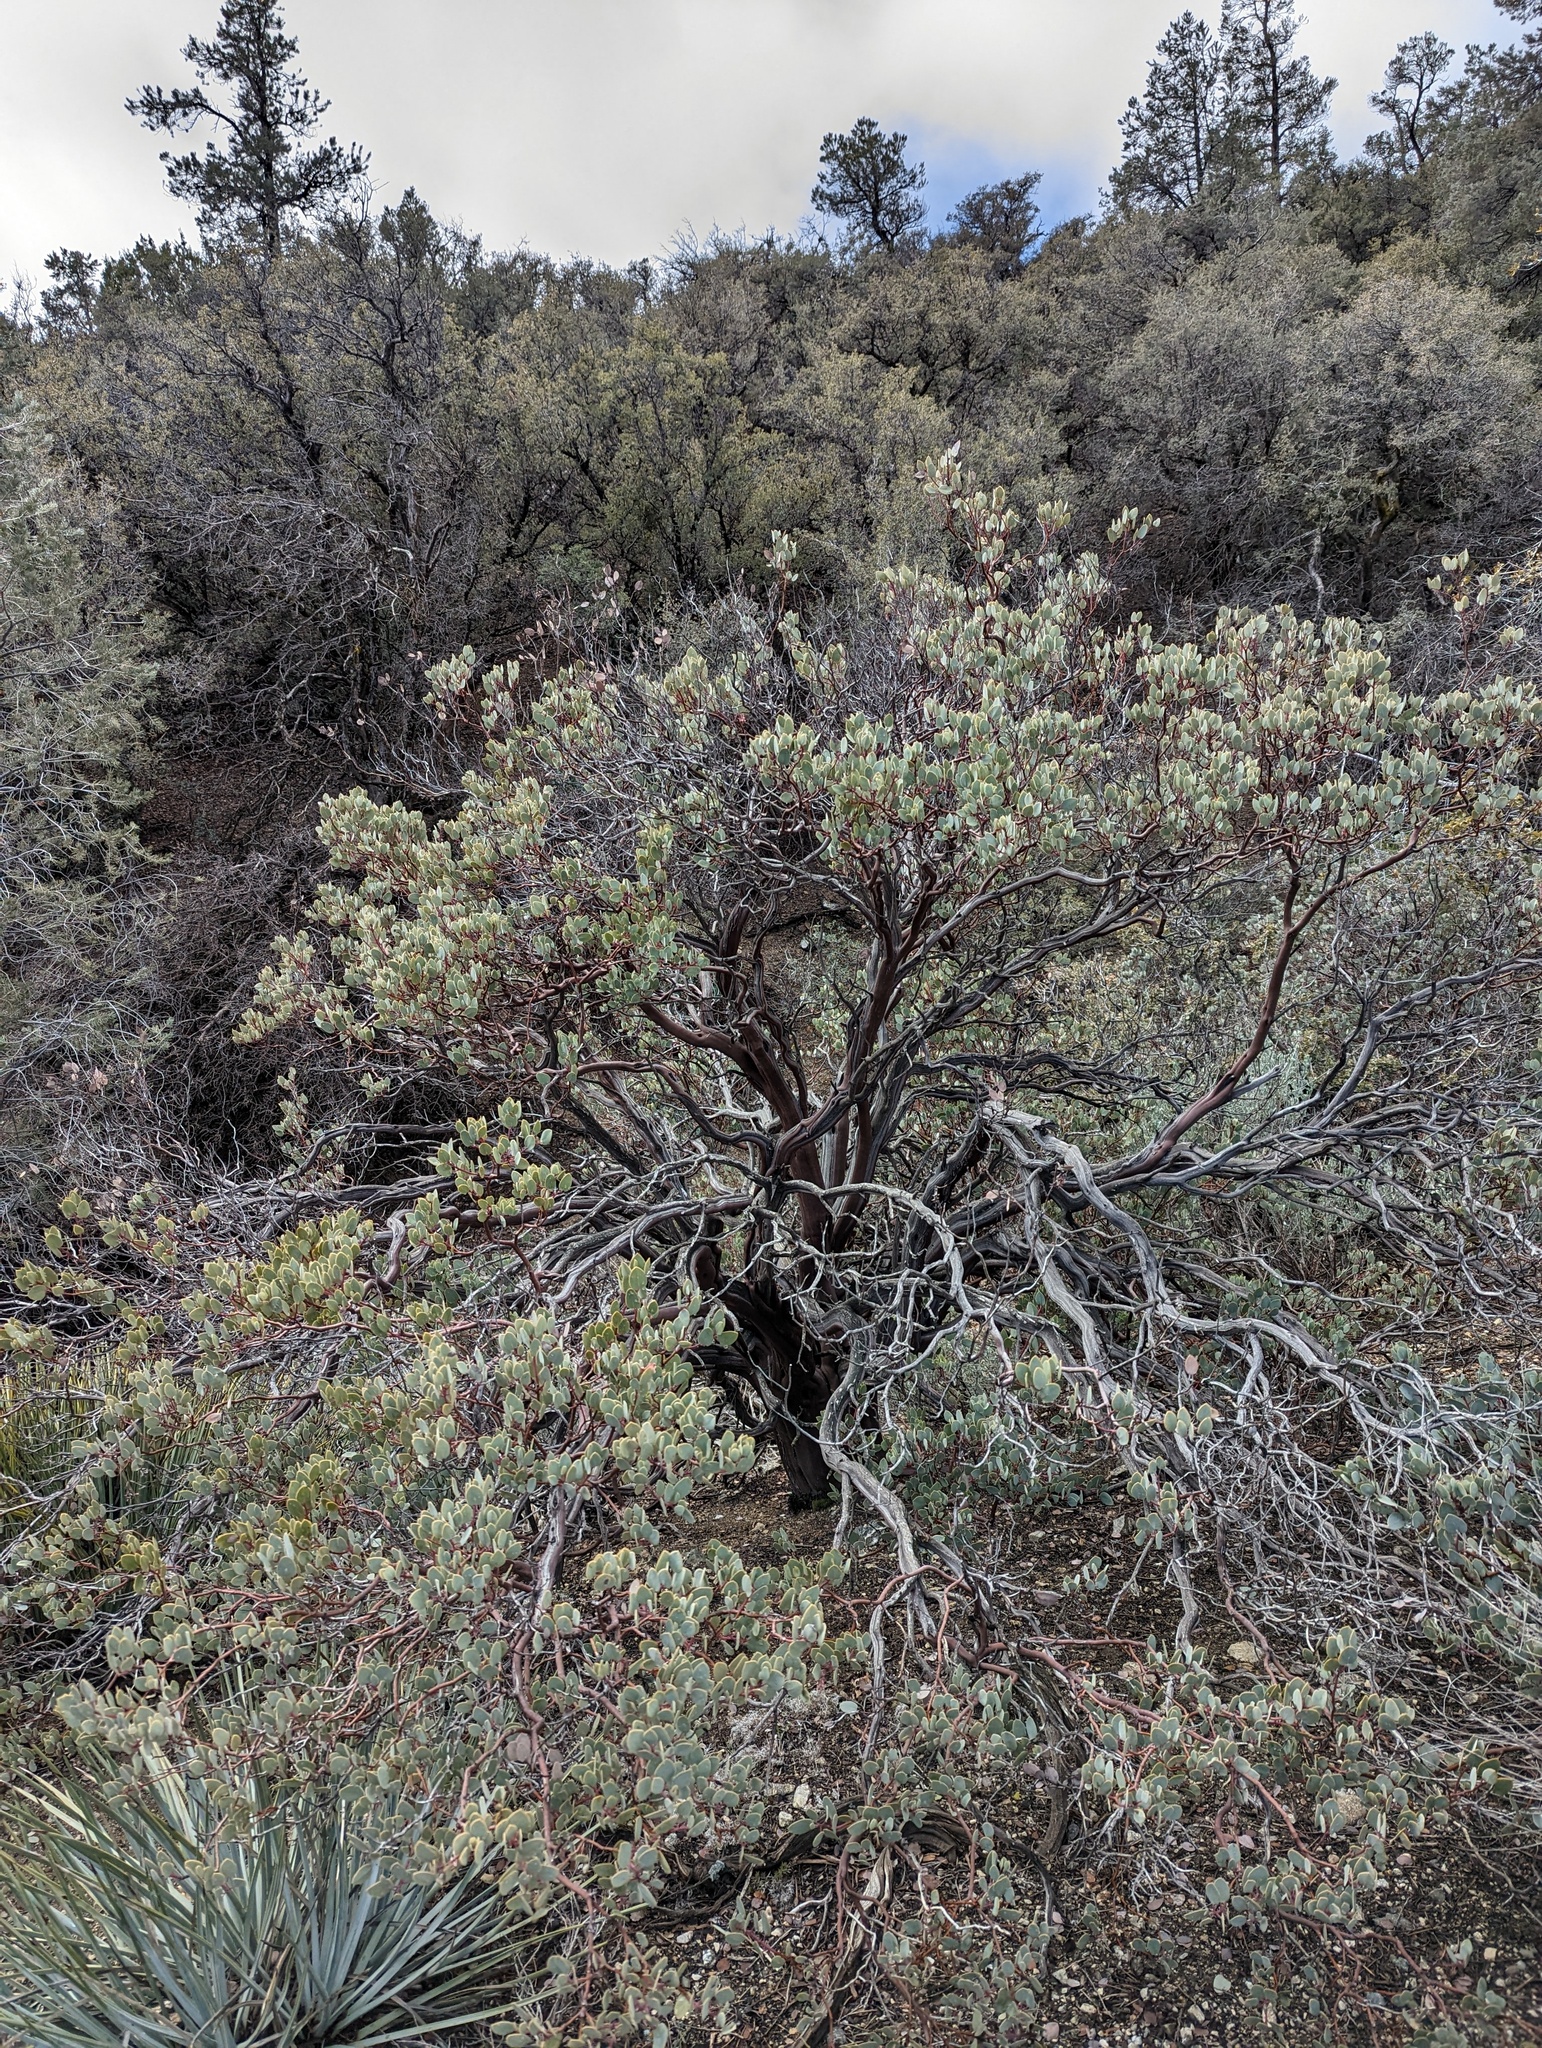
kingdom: Plantae
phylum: Tracheophyta
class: Magnoliopsida
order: Ericales
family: Ericaceae
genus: Arctostaphylos
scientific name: Arctostaphylos glauca
